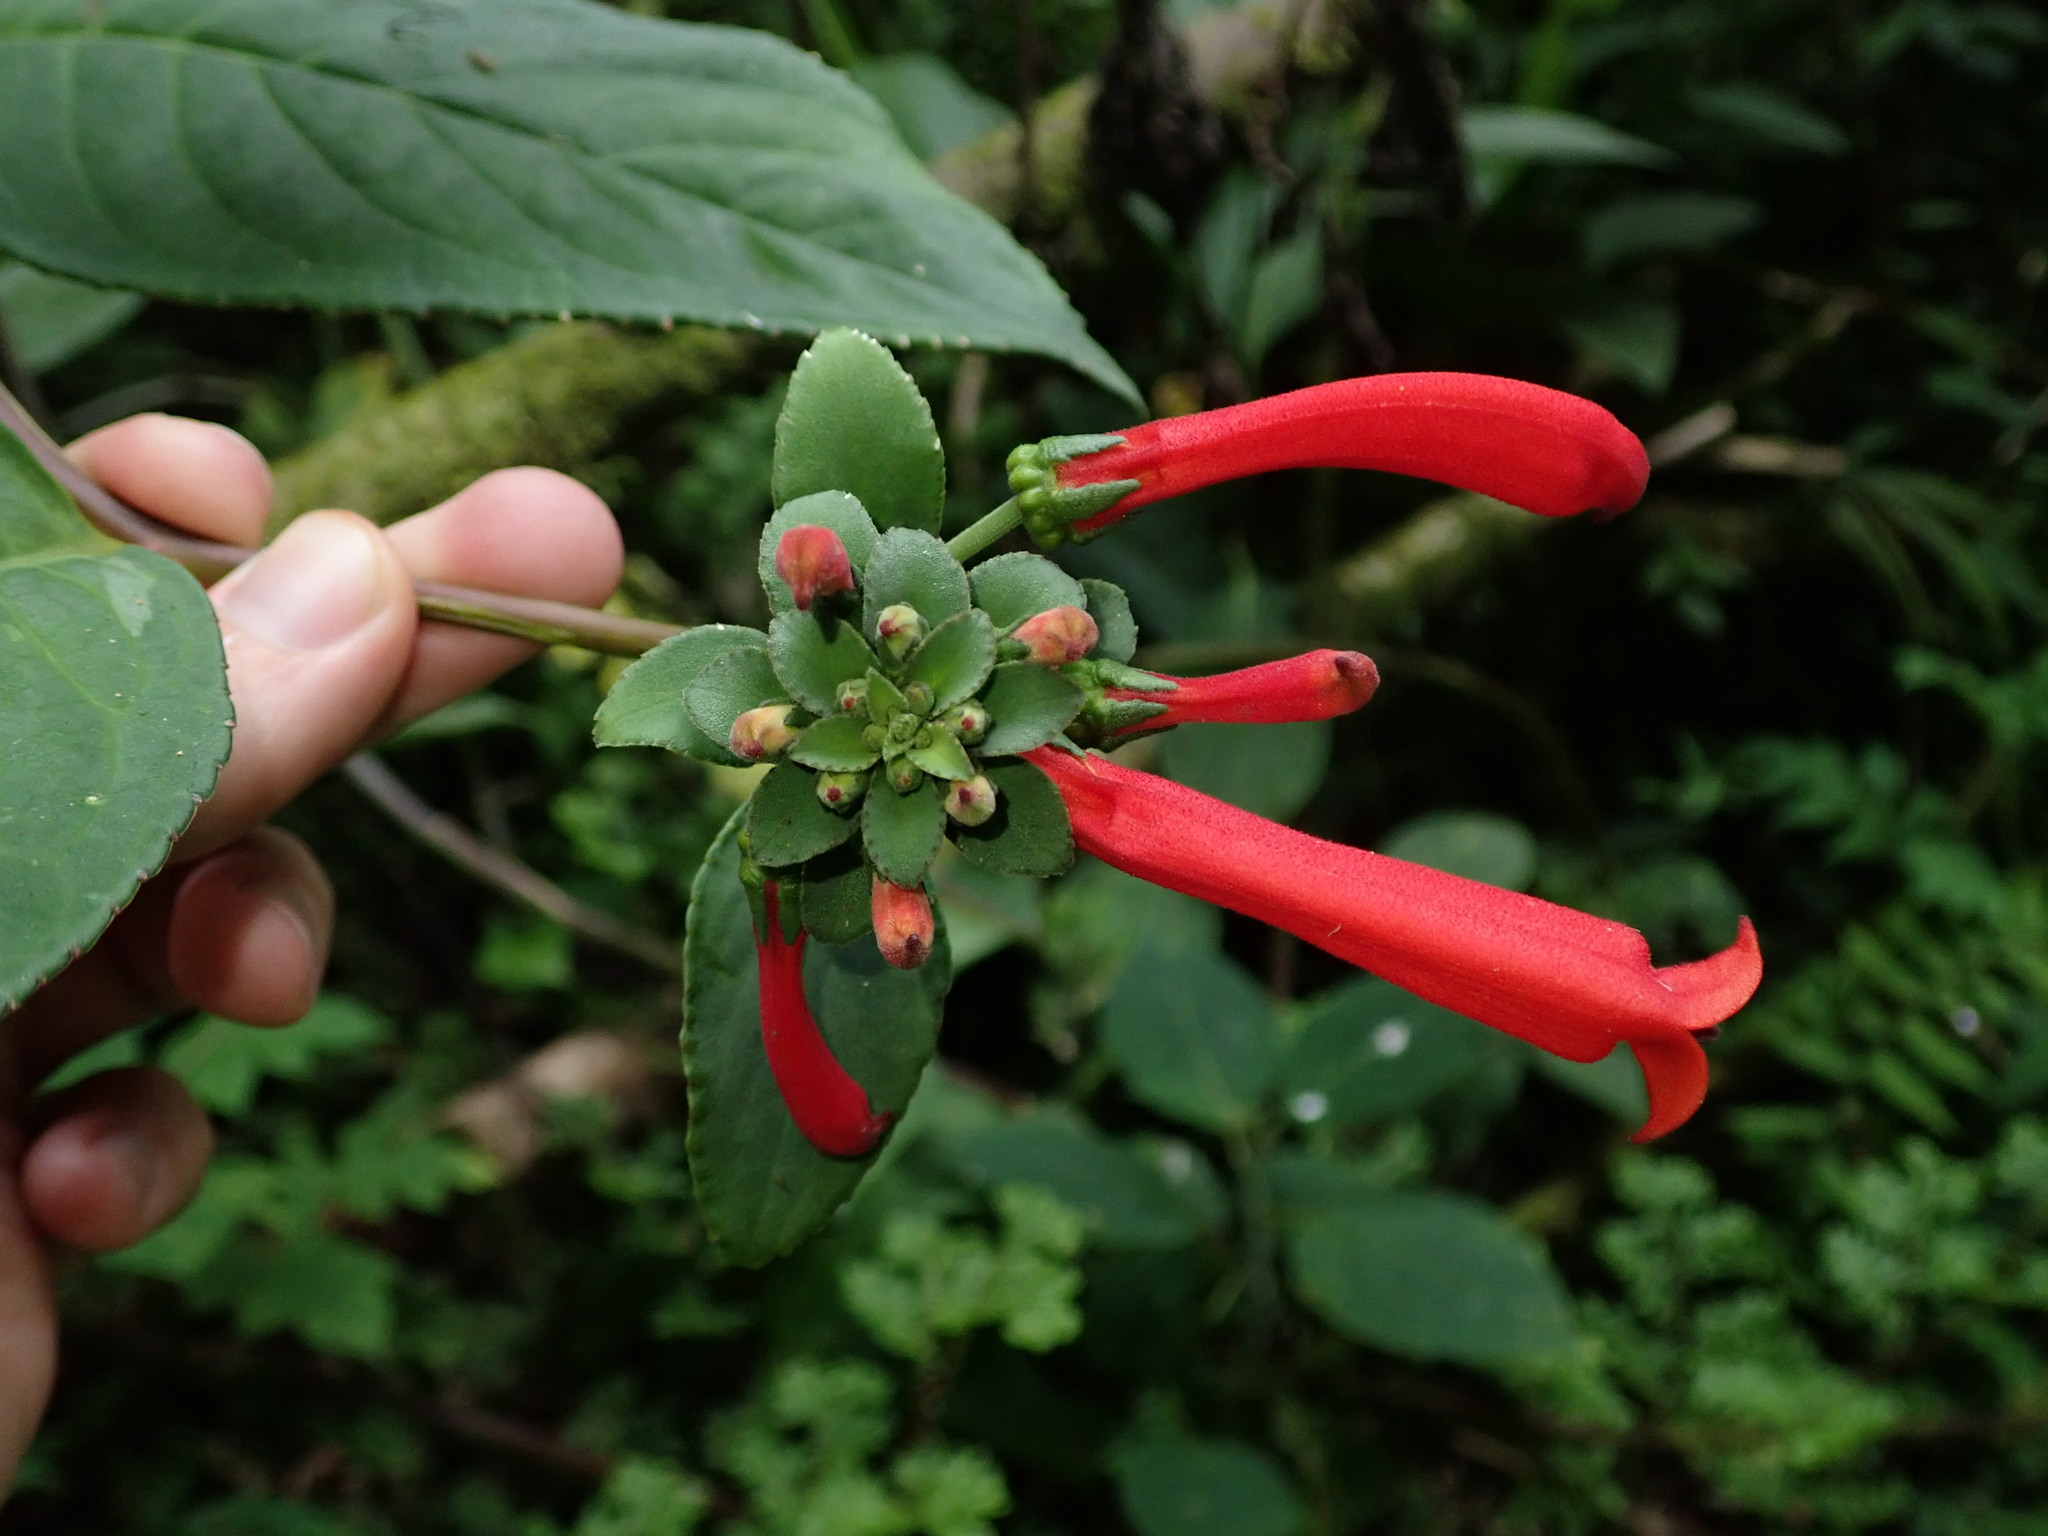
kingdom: Plantae
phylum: Tracheophyta
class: Magnoliopsida
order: Asterales
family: Campanulaceae
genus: Centropogon
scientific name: Centropogon solanifolius
